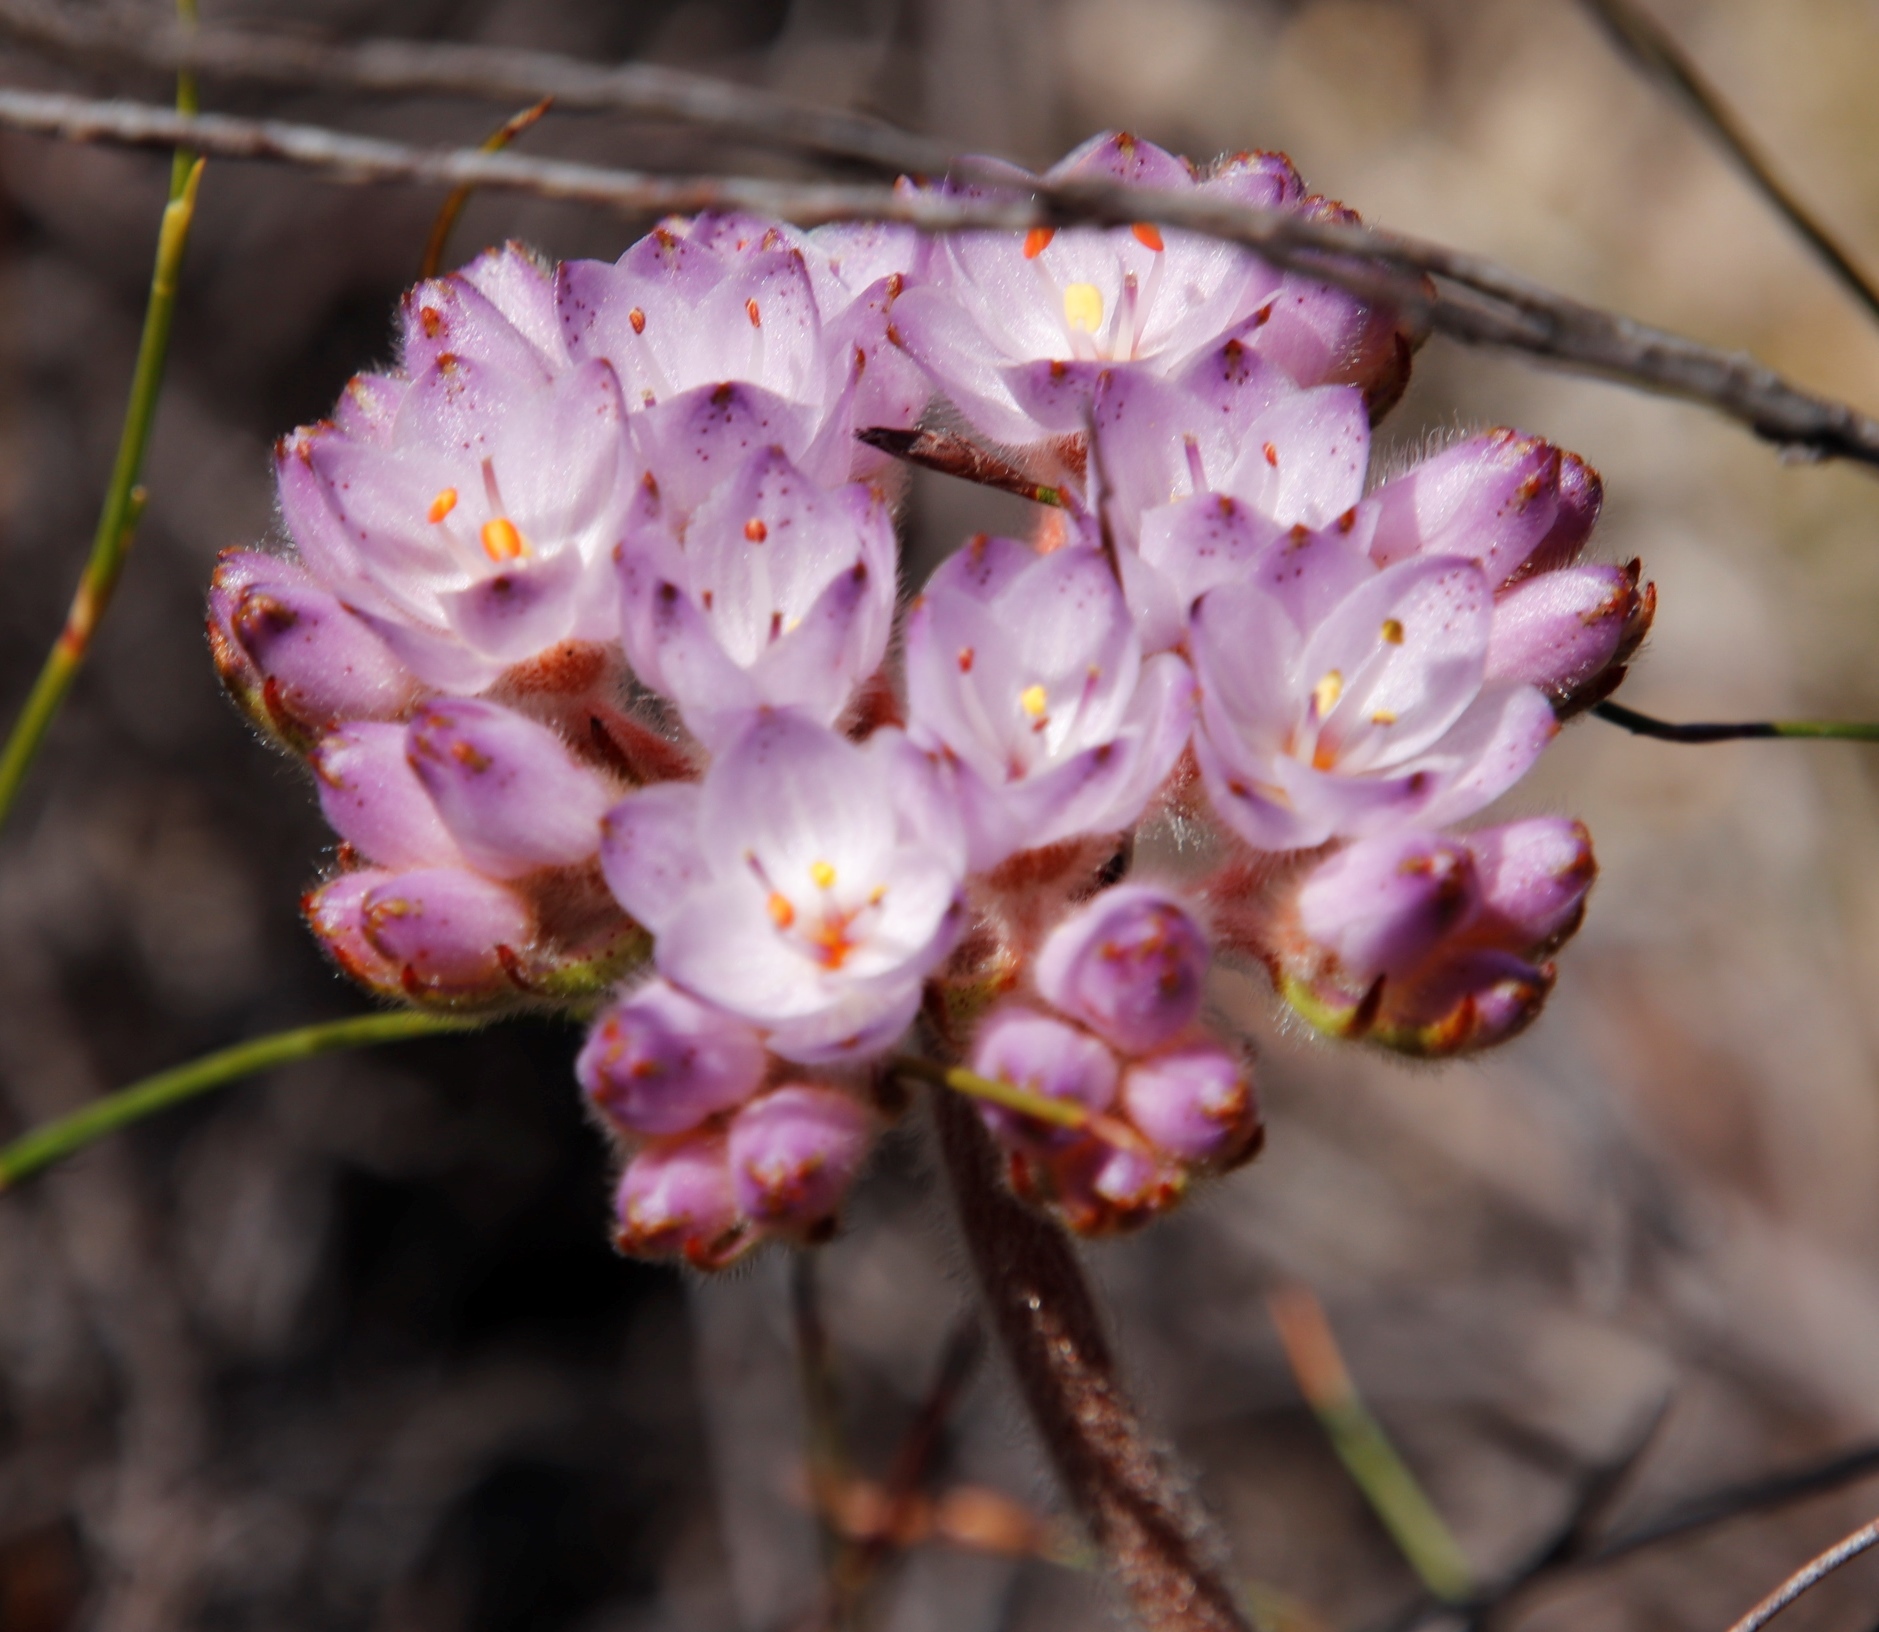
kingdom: Plantae
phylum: Tracheophyta
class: Liliopsida
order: Commelinales
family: Haemodoraceae
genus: Dilatris
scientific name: Dilatris pillansii
